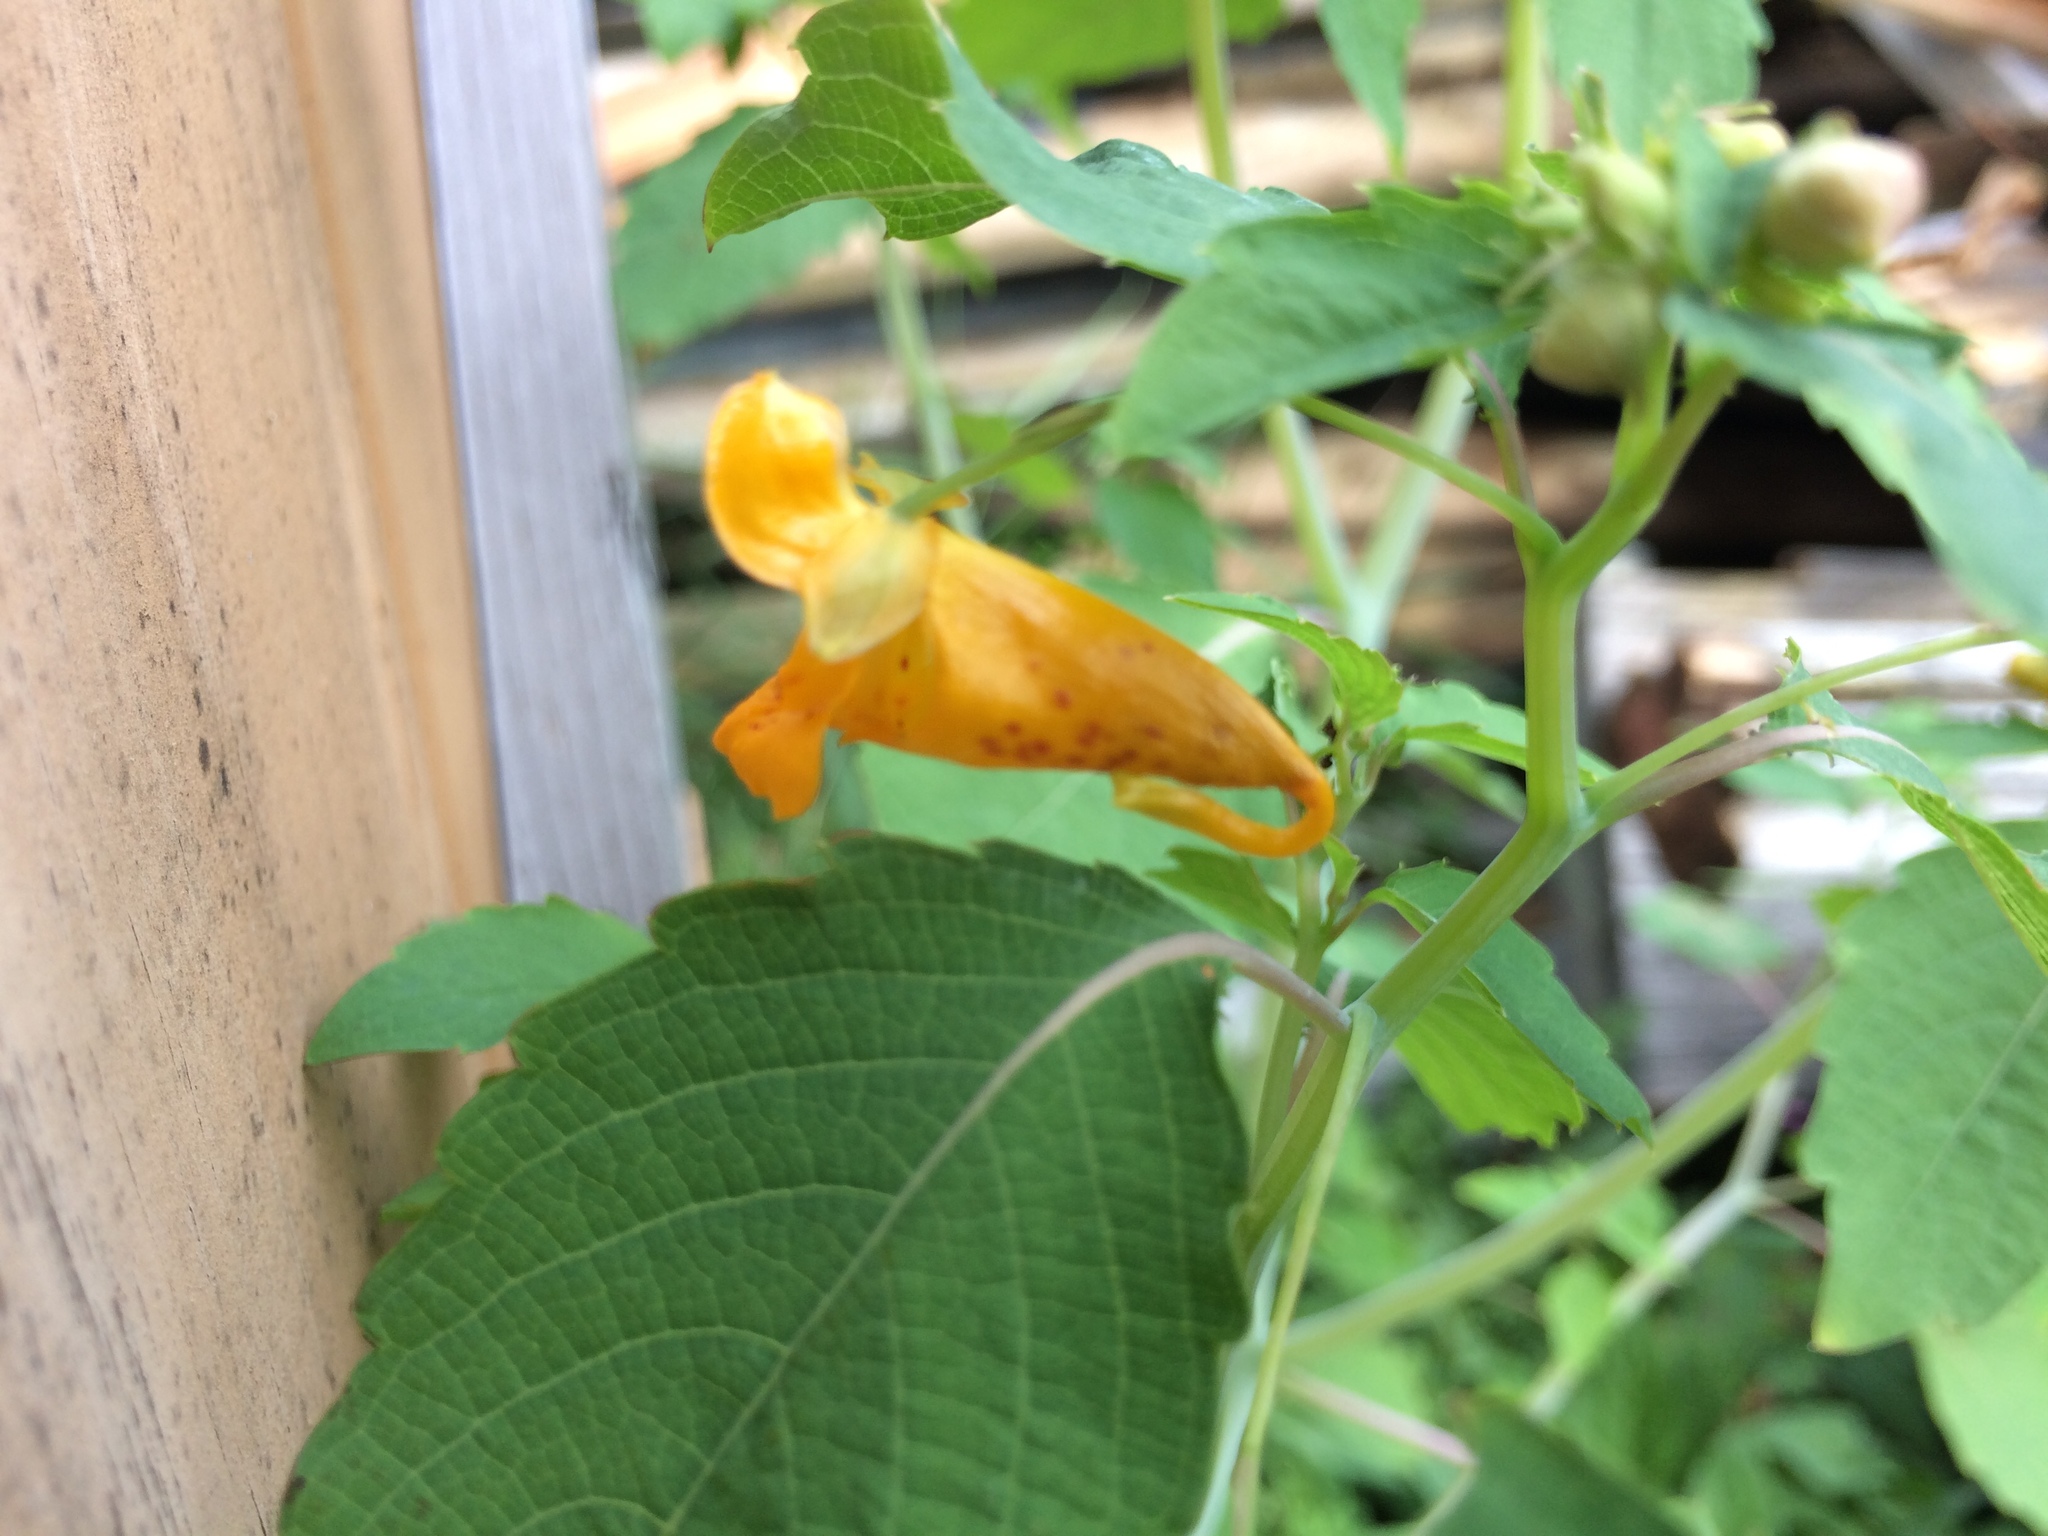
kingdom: Plantae
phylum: Tracheophyta
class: Magnoliopsida
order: Ericales
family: Balsaminaceae
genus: Impatiens
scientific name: Impatiens capensis
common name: Orange balsam
